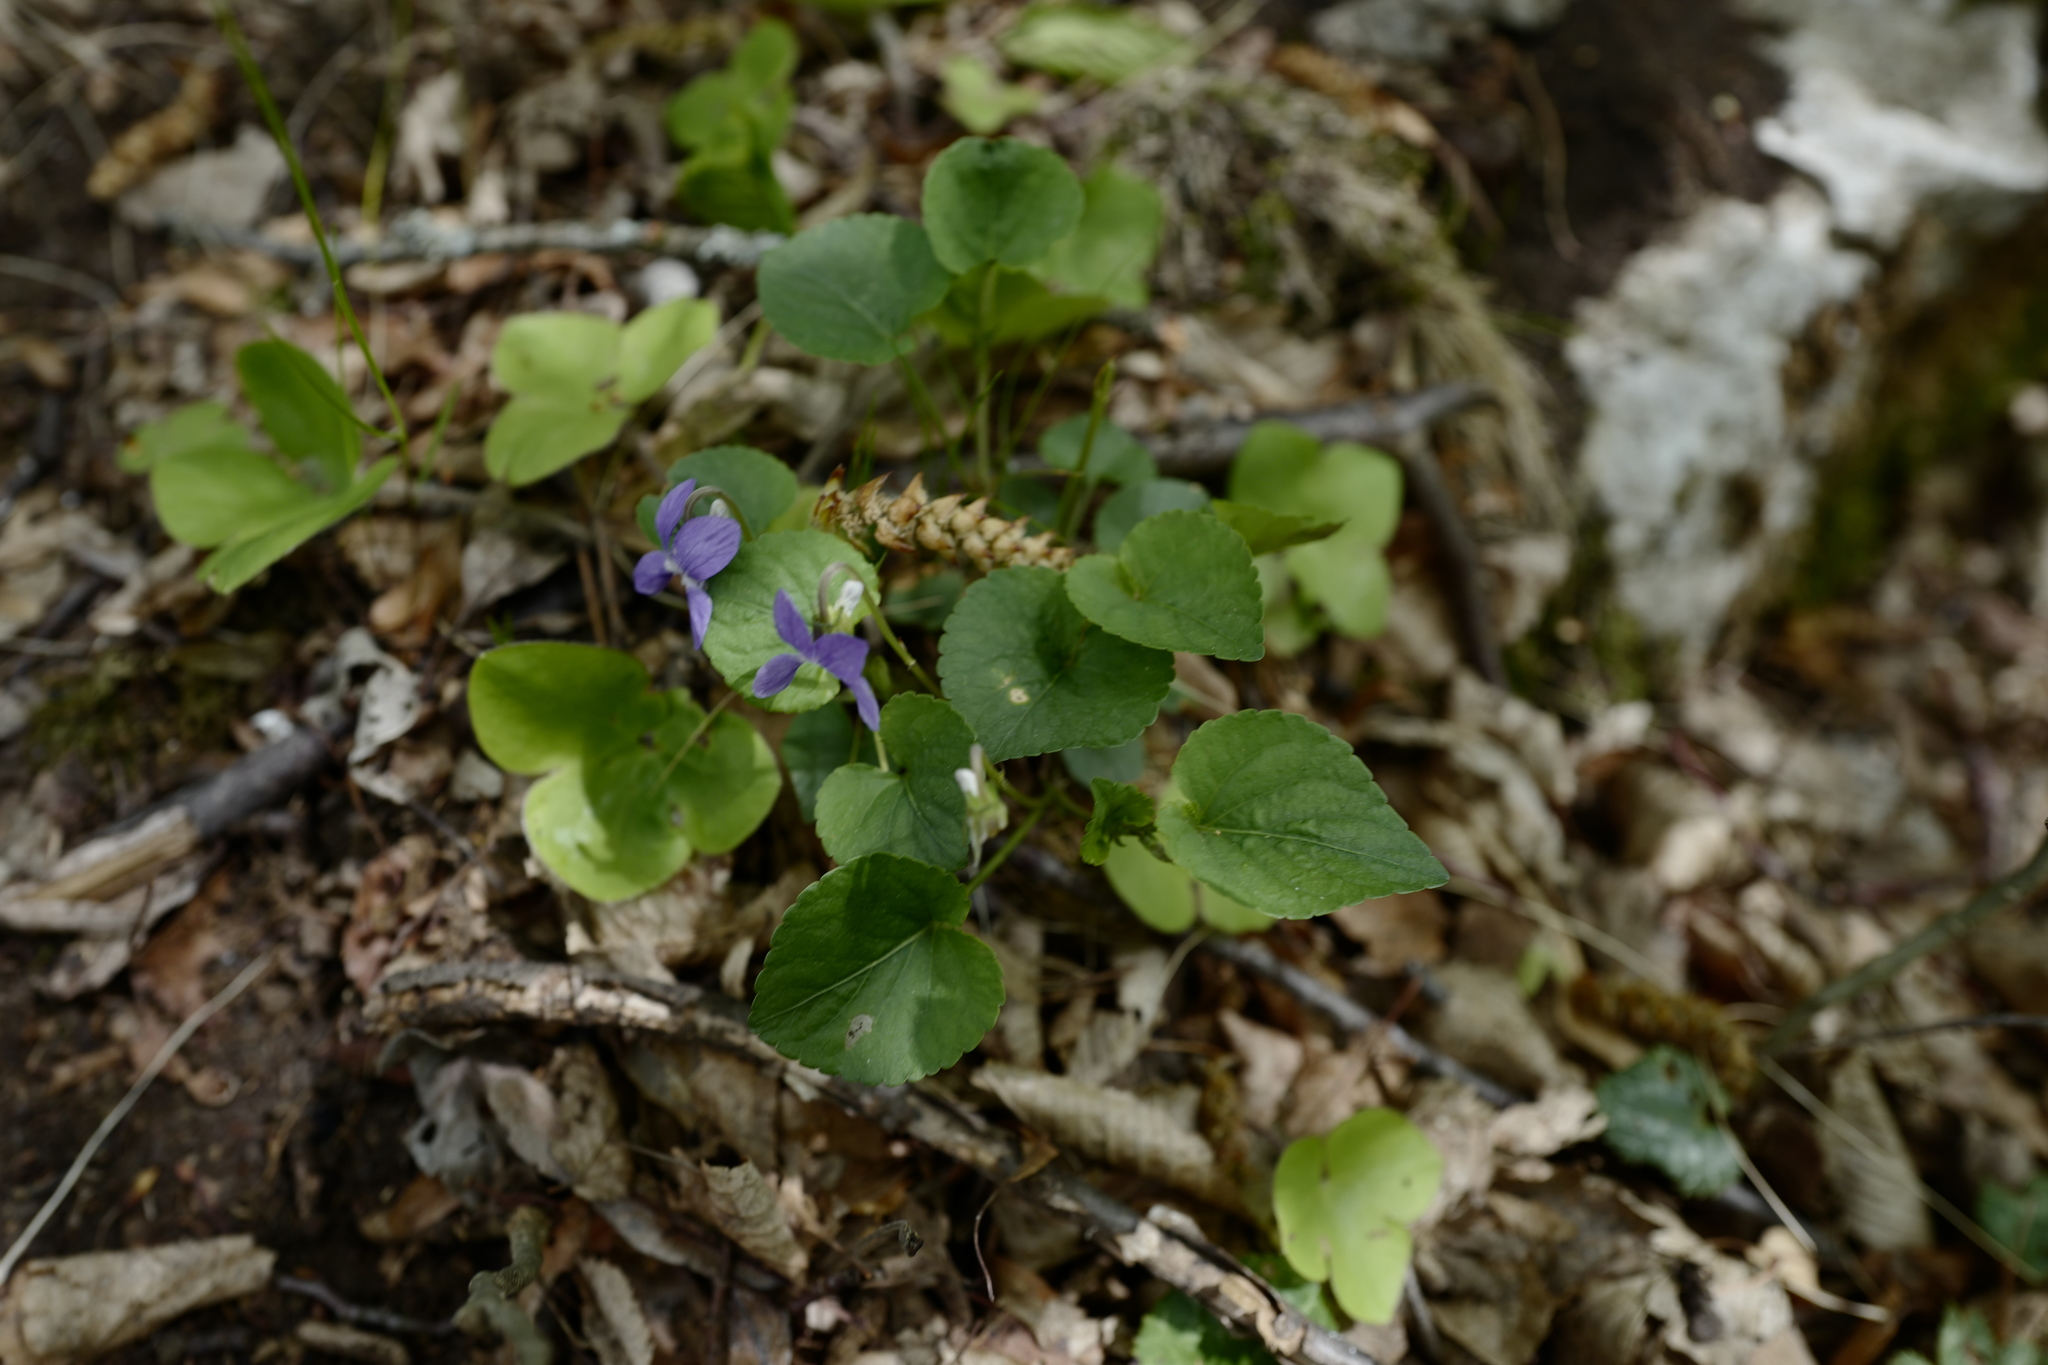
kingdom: Plantae
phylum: Tracheophyta
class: Magnoliopsida
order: Malpighiales
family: Violaceae
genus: Viola
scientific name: Viola bavarica
